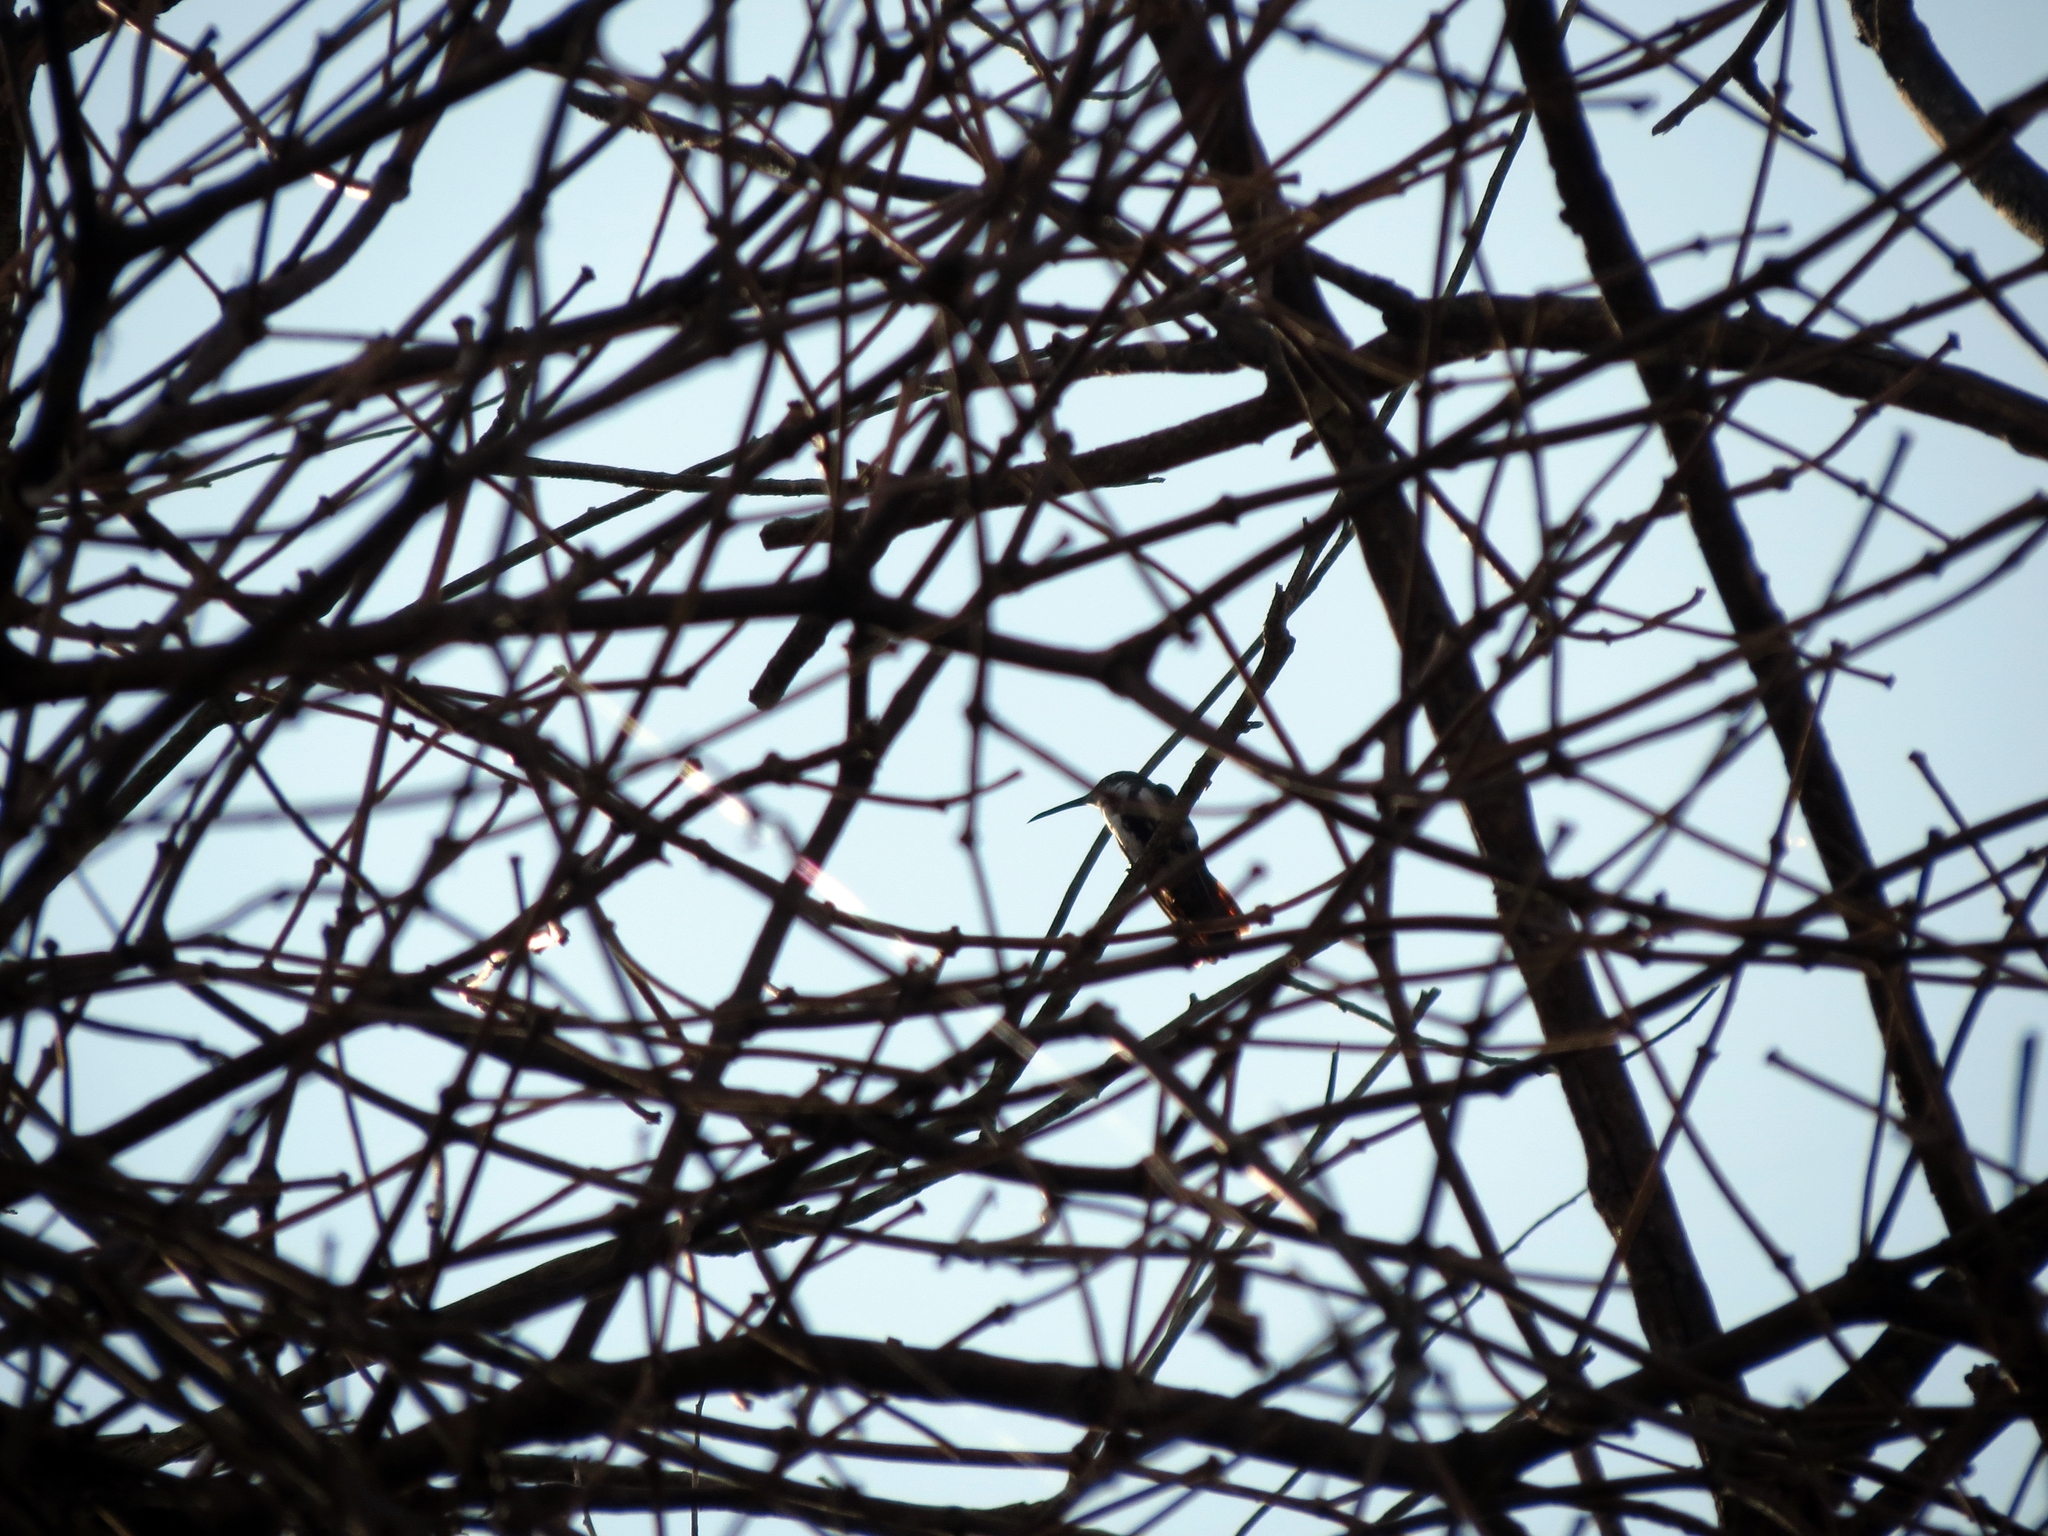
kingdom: Animalia
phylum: Chordata
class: Aves
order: Apodiformes
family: Trochilidae
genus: Anthracothorax
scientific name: Anthracothorax nigricollis
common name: Black-throated mango
